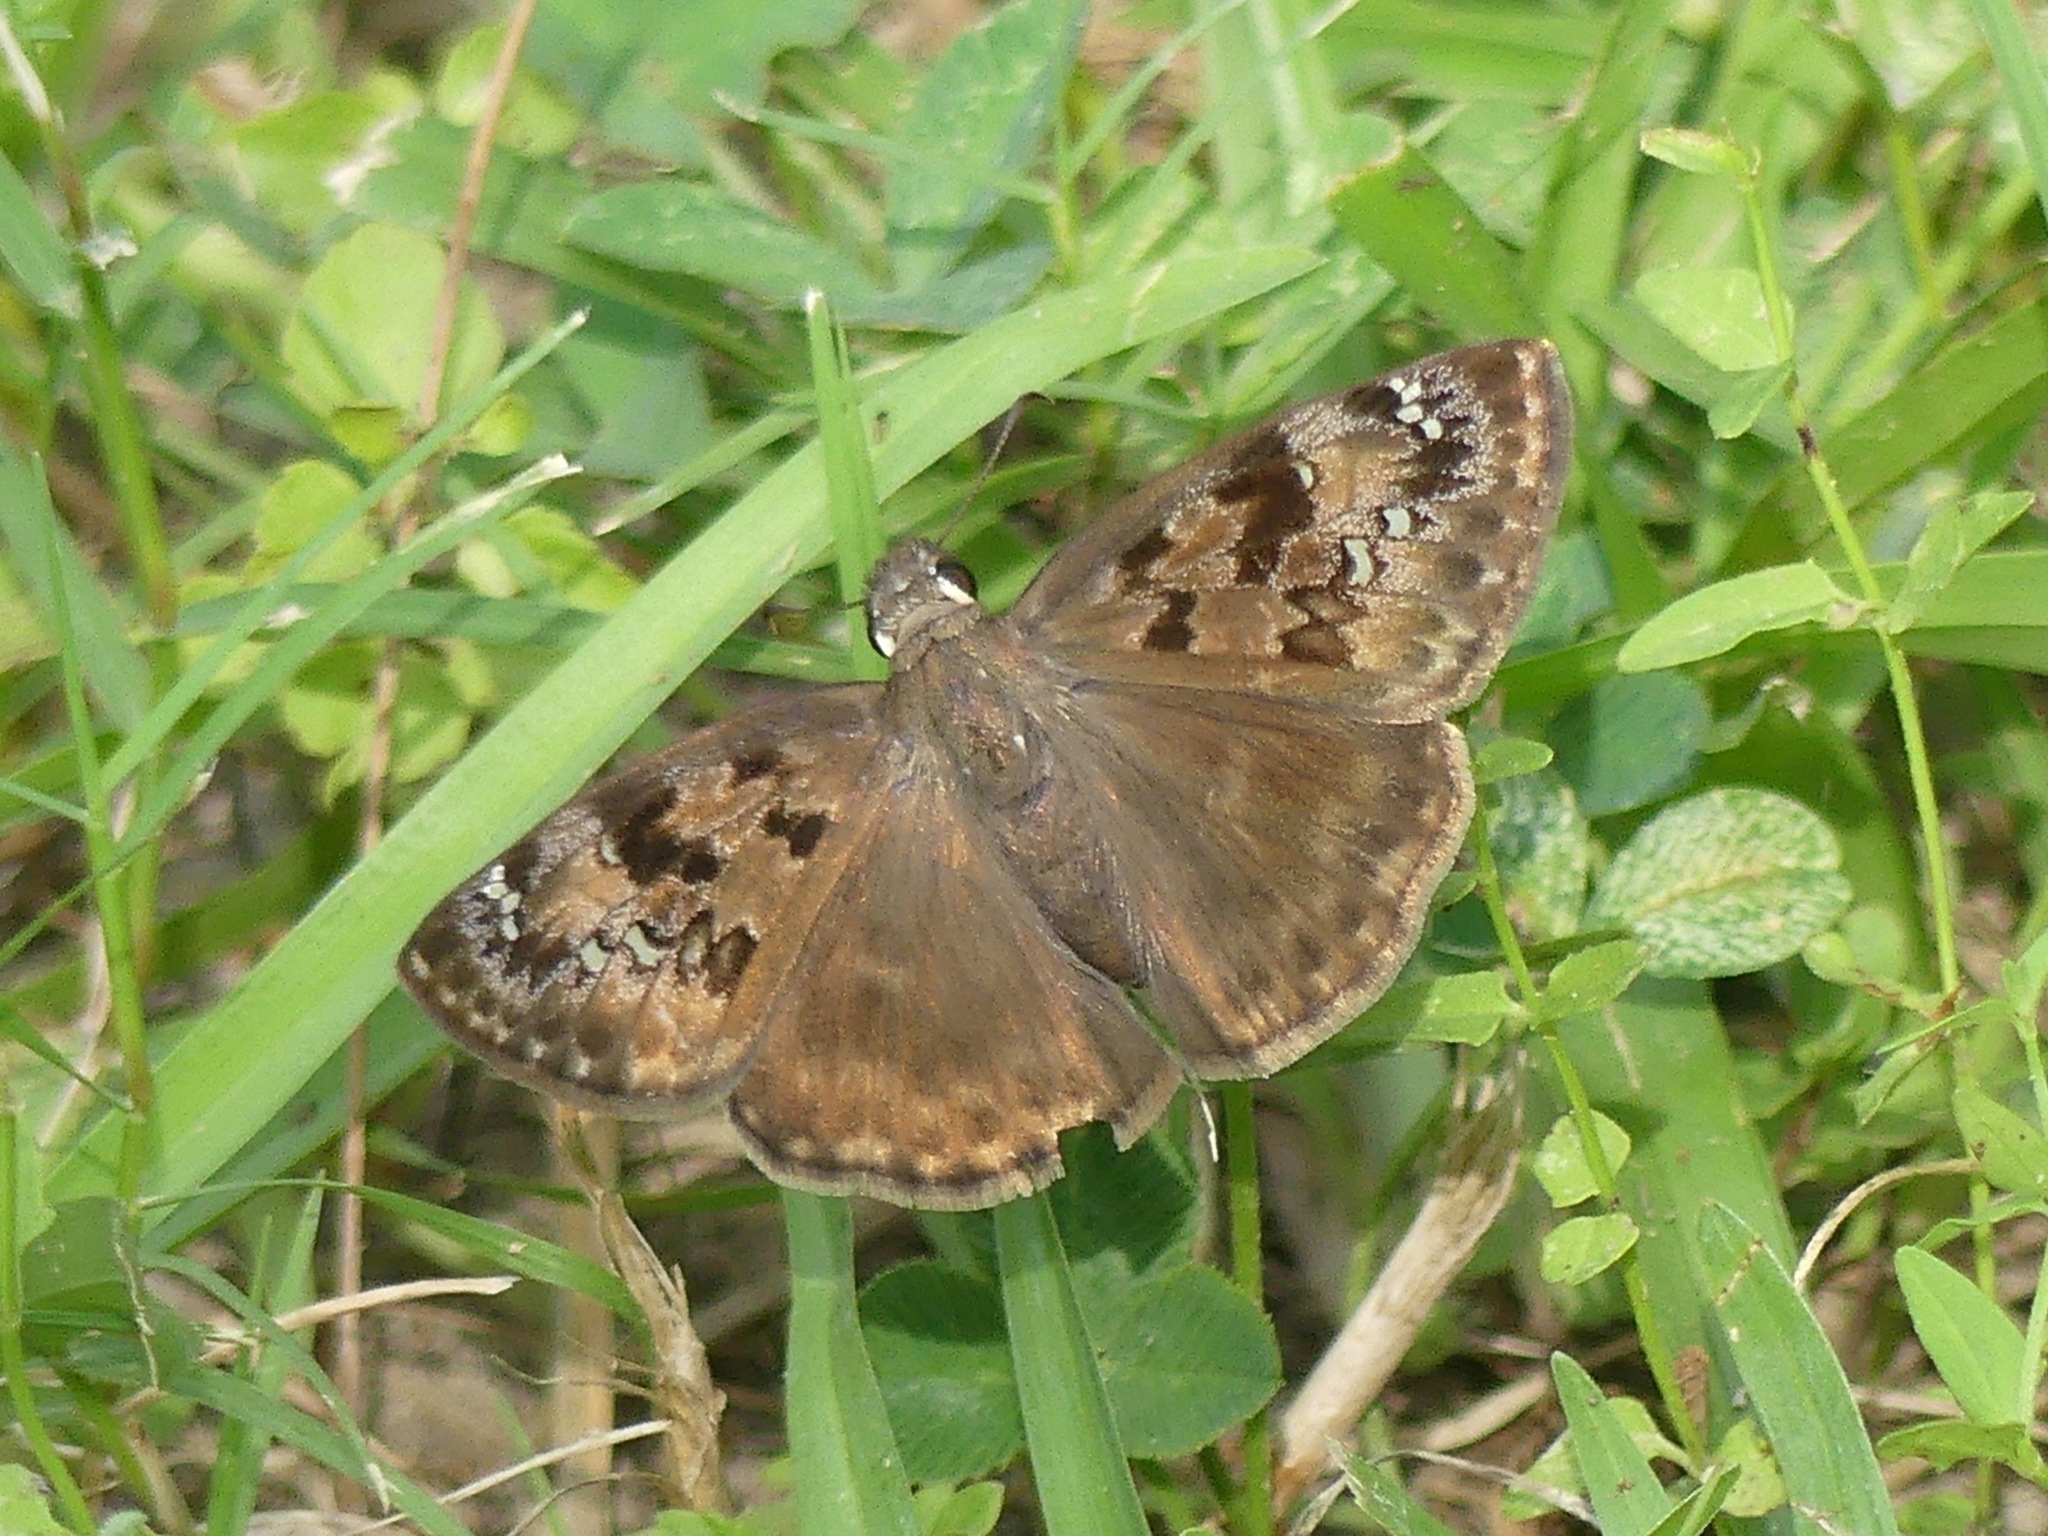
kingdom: Animalia
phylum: Arthropoda
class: Insecta
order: Lepidoptera
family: Hesperiidae
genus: Erynnis
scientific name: Erynnis horatius
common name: Horace's duskywing
